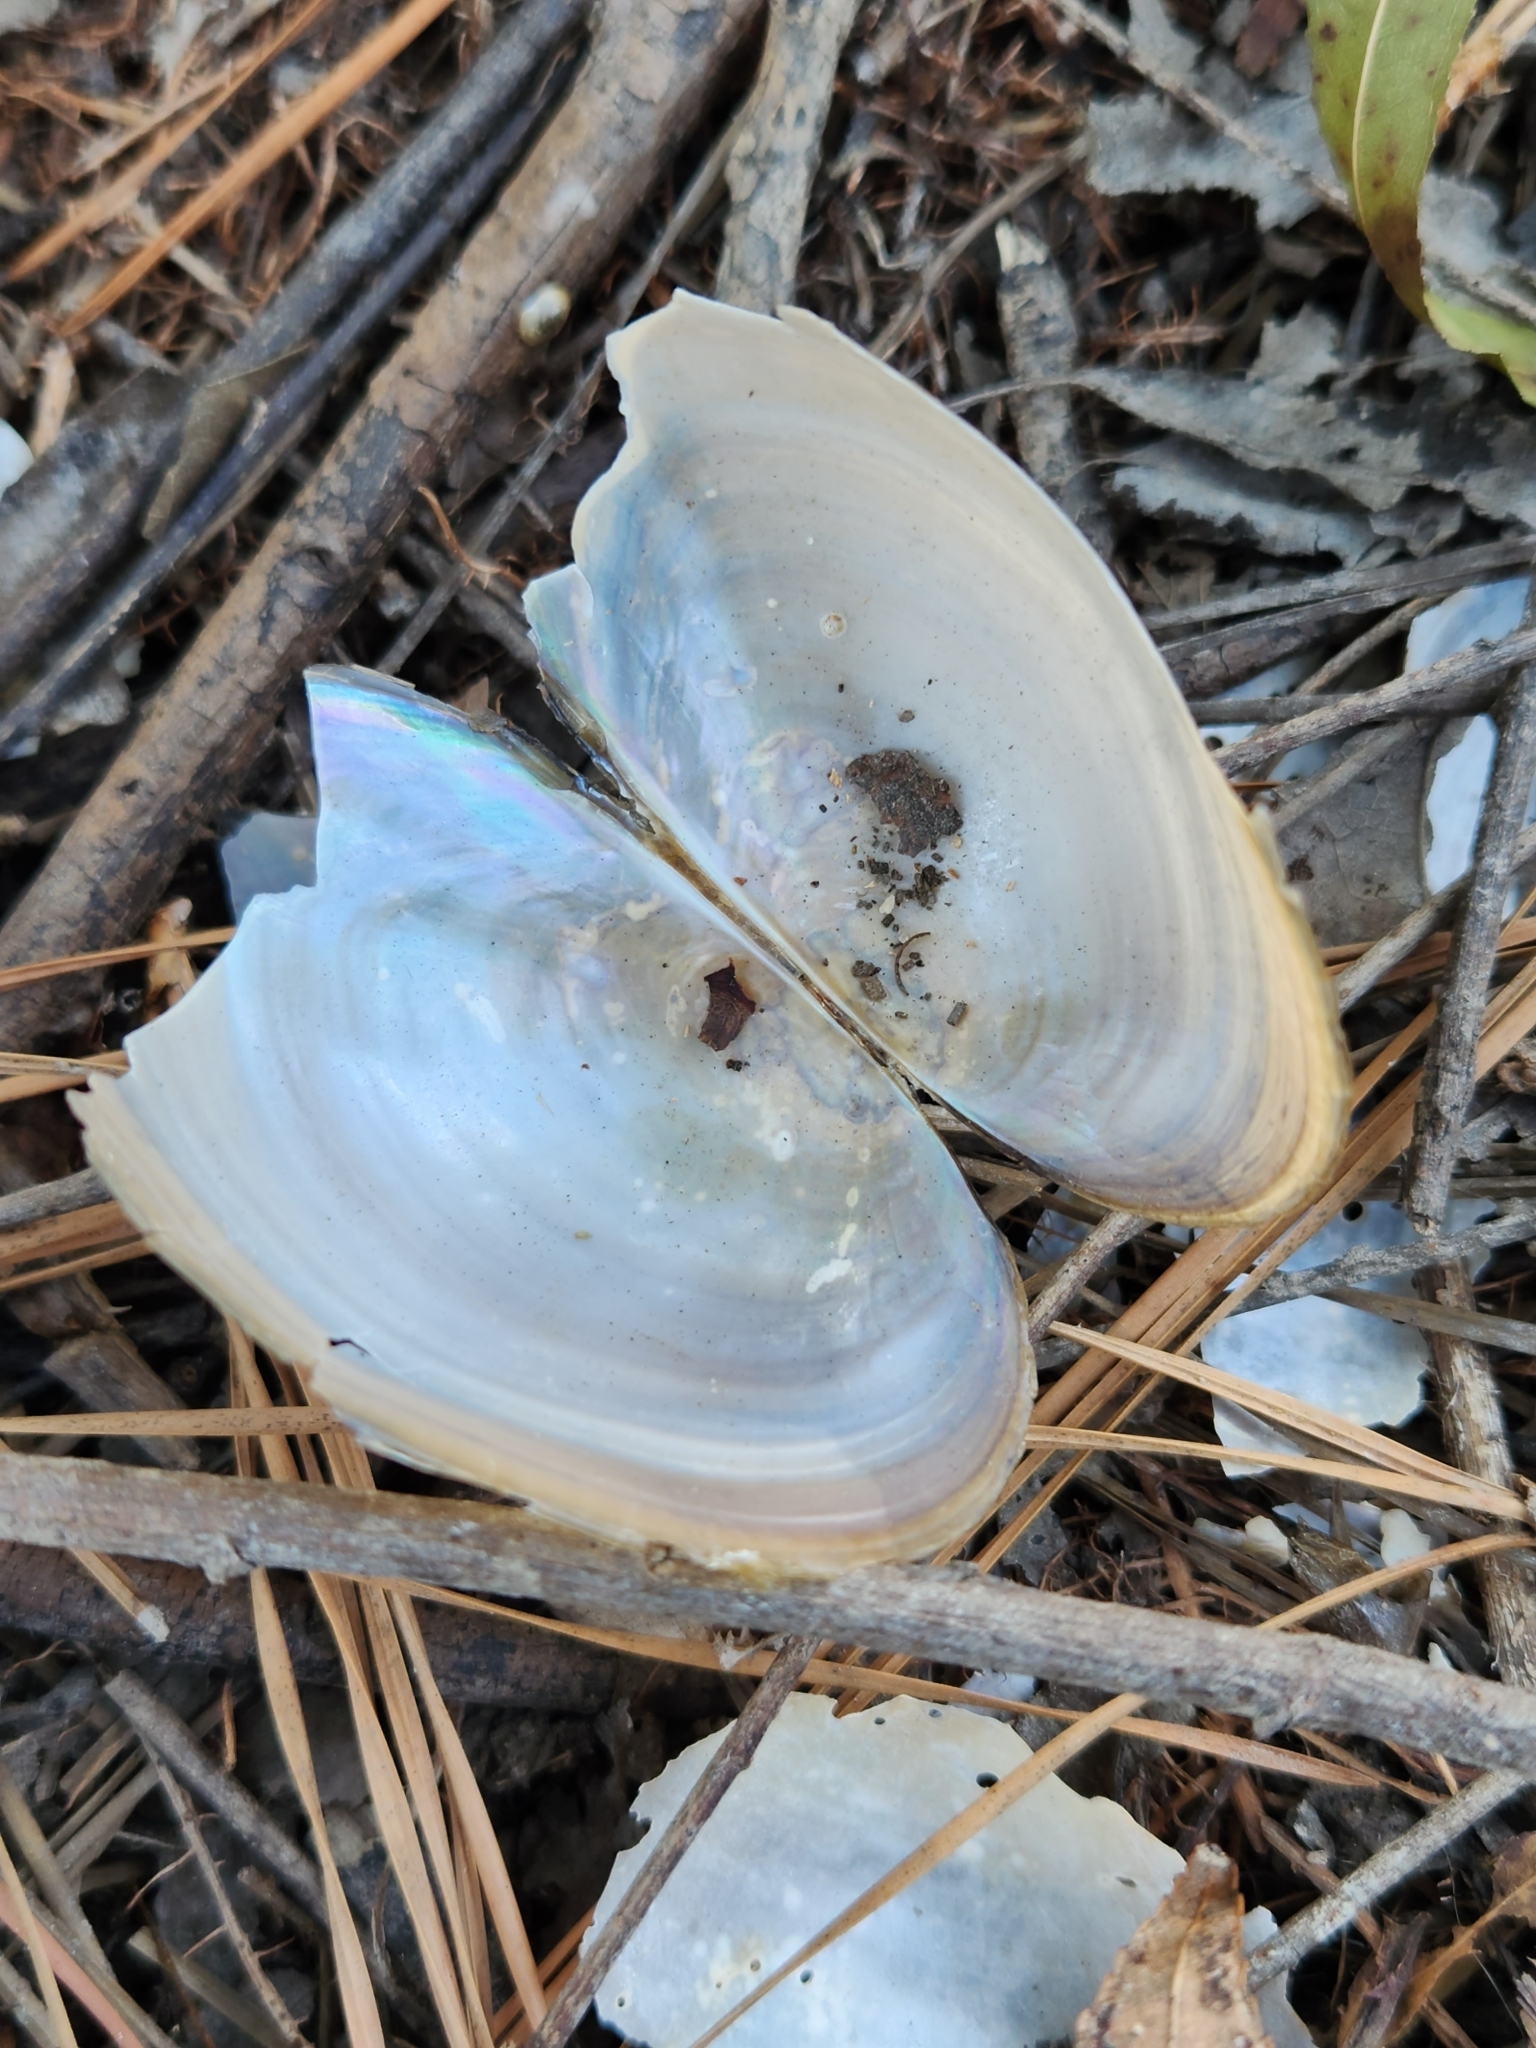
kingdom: Animalia
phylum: Mollusca
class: Bivalvia
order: Unionida
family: Unionidae
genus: Utterbackia
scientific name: Utterbackia imbecillis
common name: Paper pondshell
